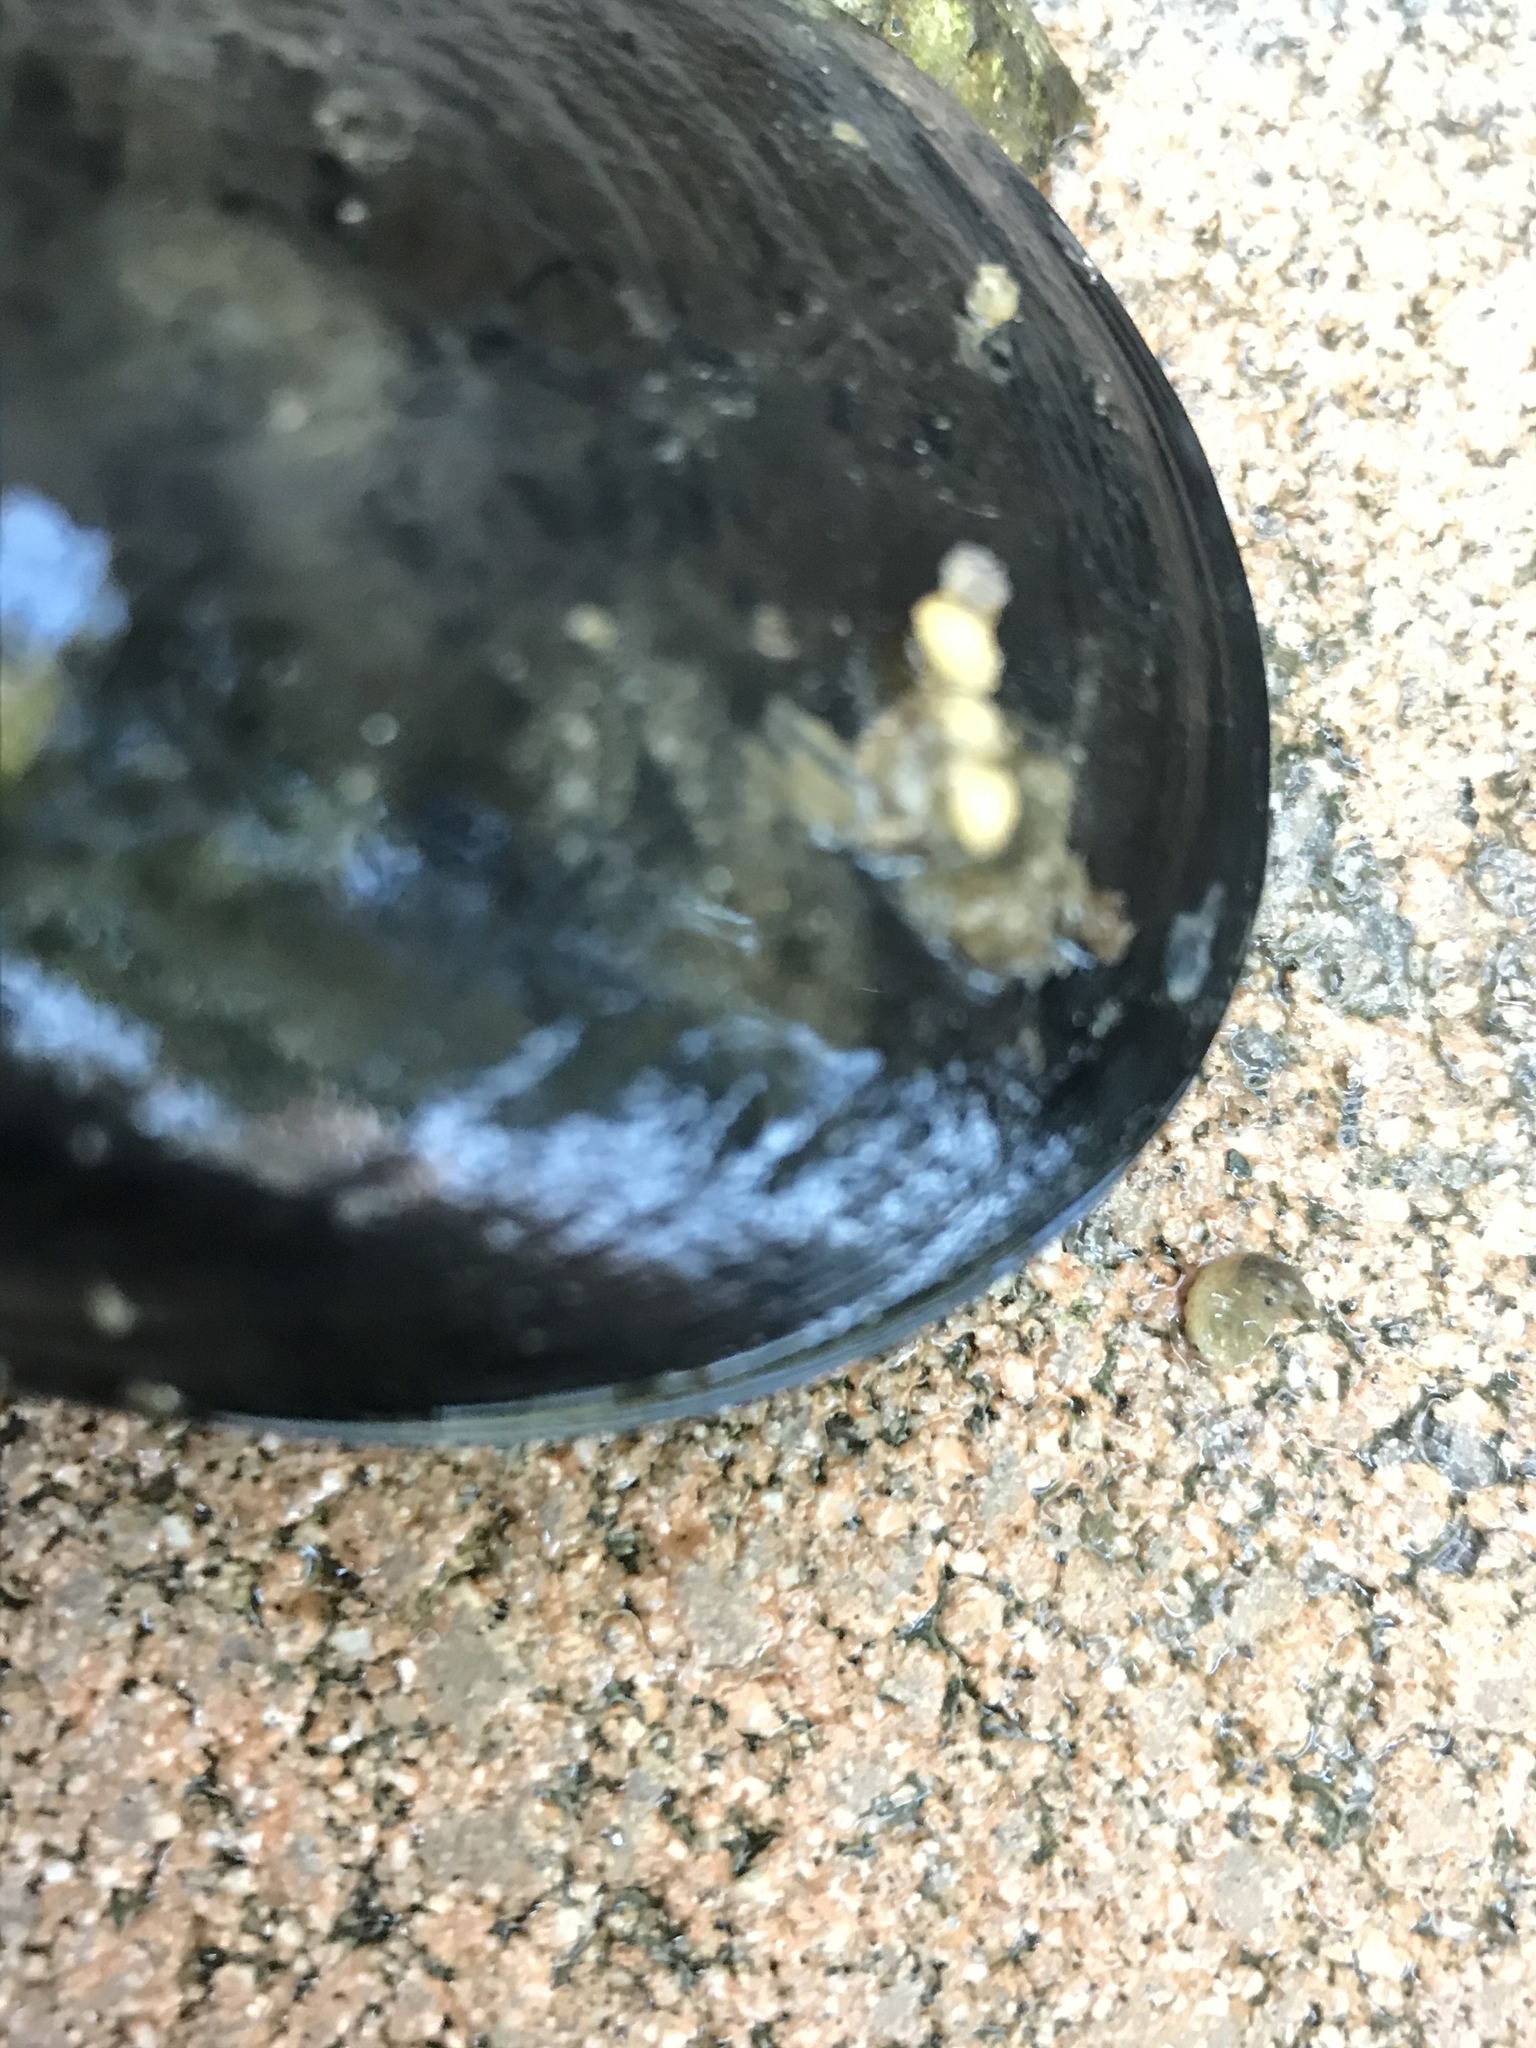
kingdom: Animalia
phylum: Mollusca
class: Gastropoda
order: Neogastropoda
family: Nassariidae
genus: Ilyanassa
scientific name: Ilyanassa obsoleta
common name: Eastern mudsnail
